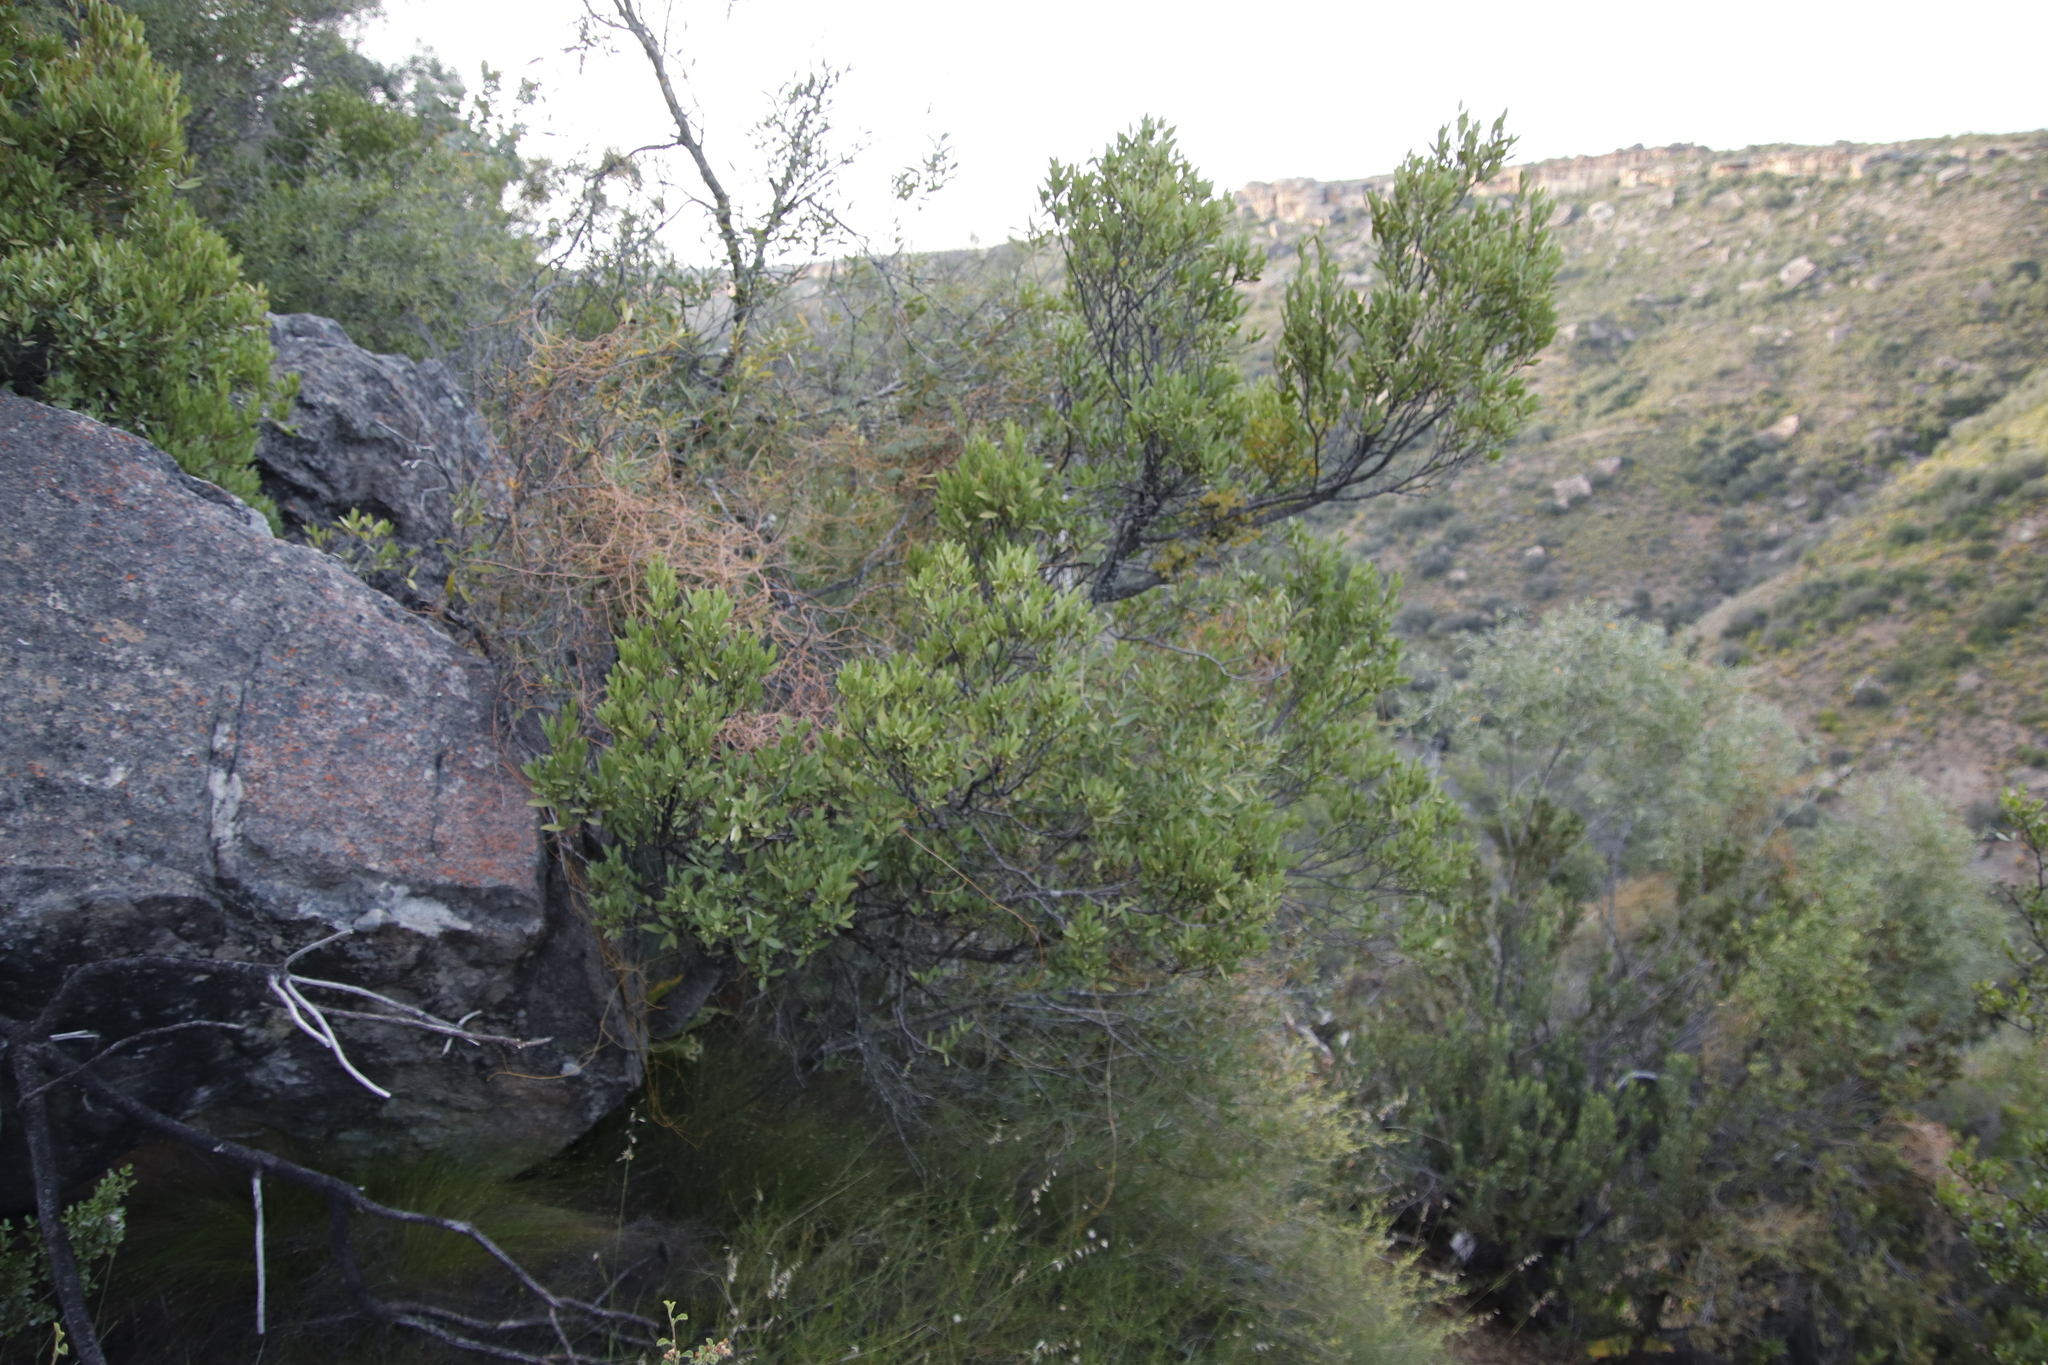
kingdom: Plantae
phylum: Tracheophyta
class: Magnoliopsida
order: Celastrales
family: Celastraceae
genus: Gymnosporia
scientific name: Gymnosporia laurina
